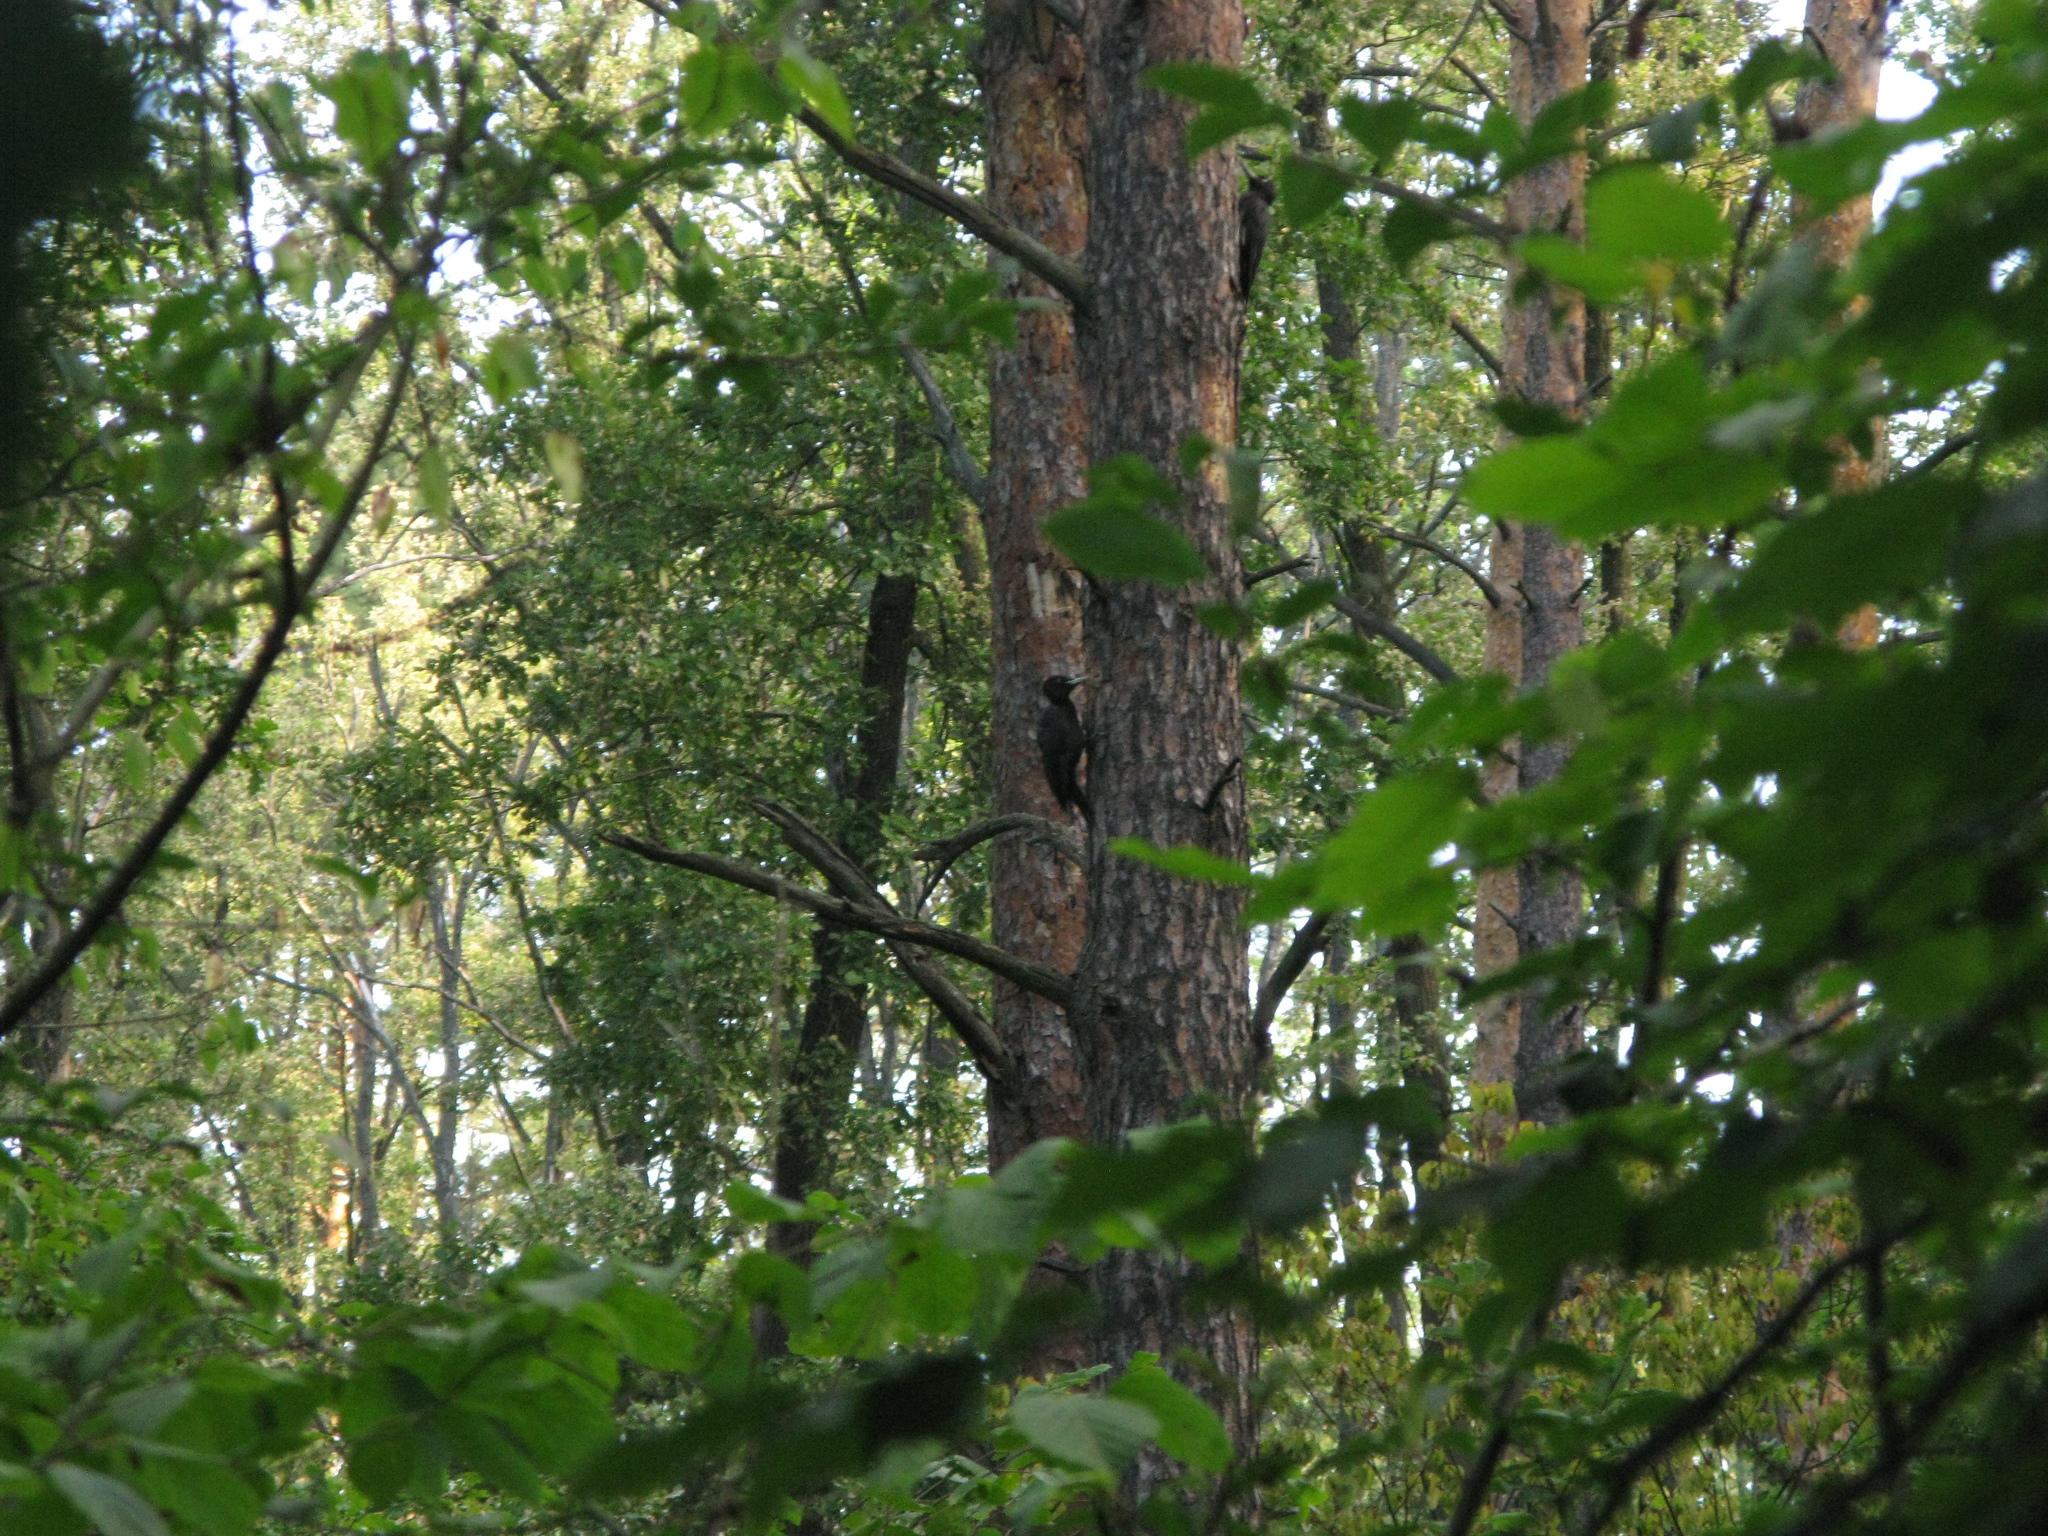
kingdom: Animalia
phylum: Chordata
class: Aves
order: Piciformes
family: Picidae
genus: Dryocopus
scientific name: Dryocopus martius
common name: Black woodpecker
